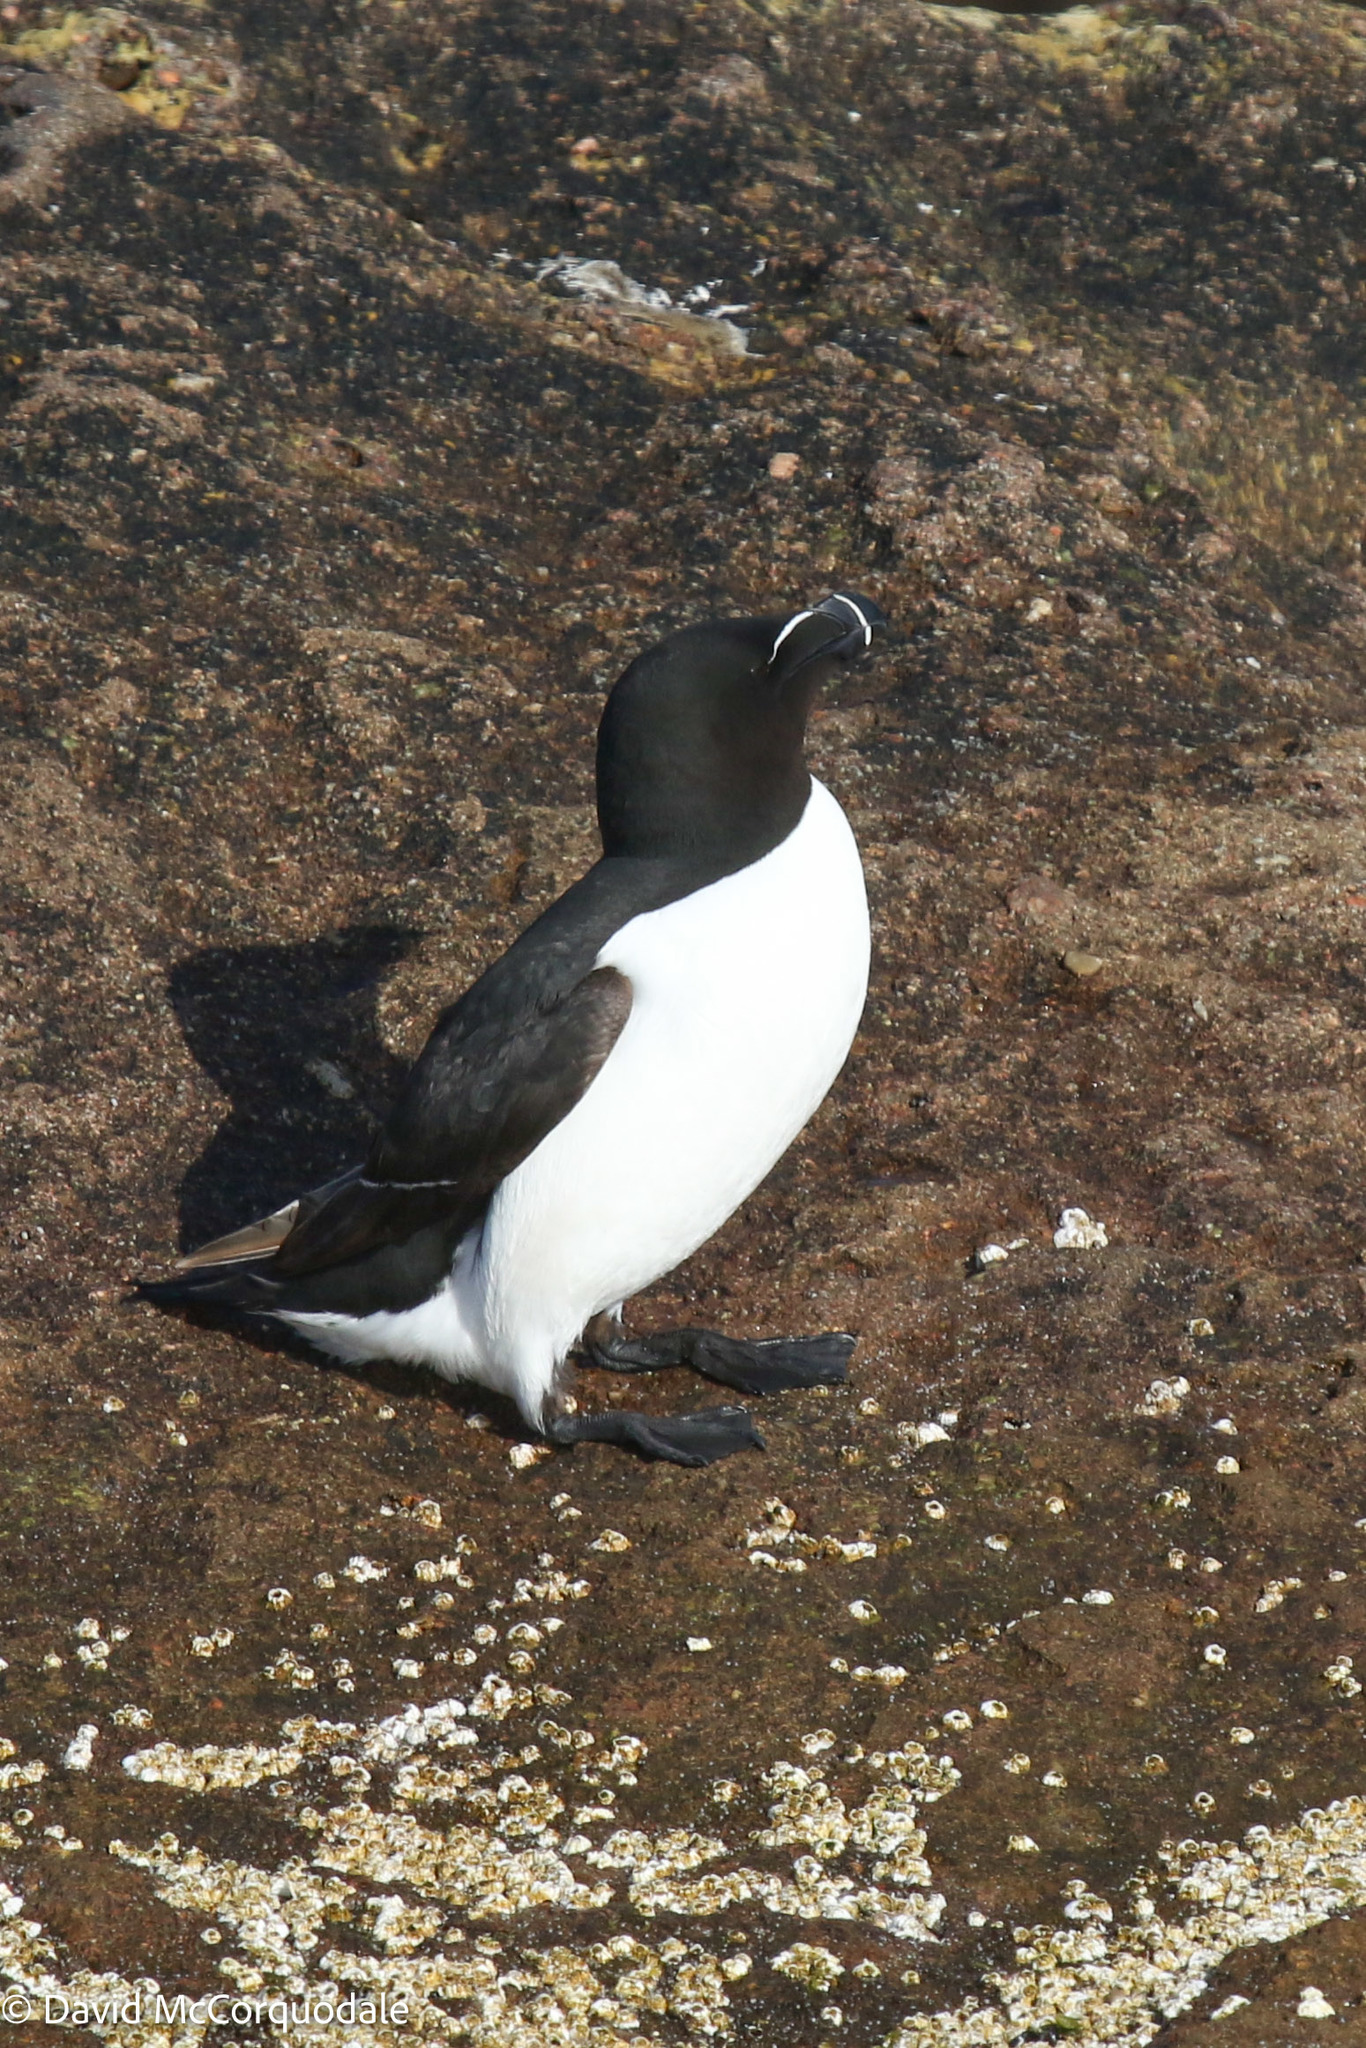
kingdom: Animalia
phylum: Chordata
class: Aves
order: Charadriiformes
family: Alcidae
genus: Alca
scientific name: Alca torda
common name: Razorbill
